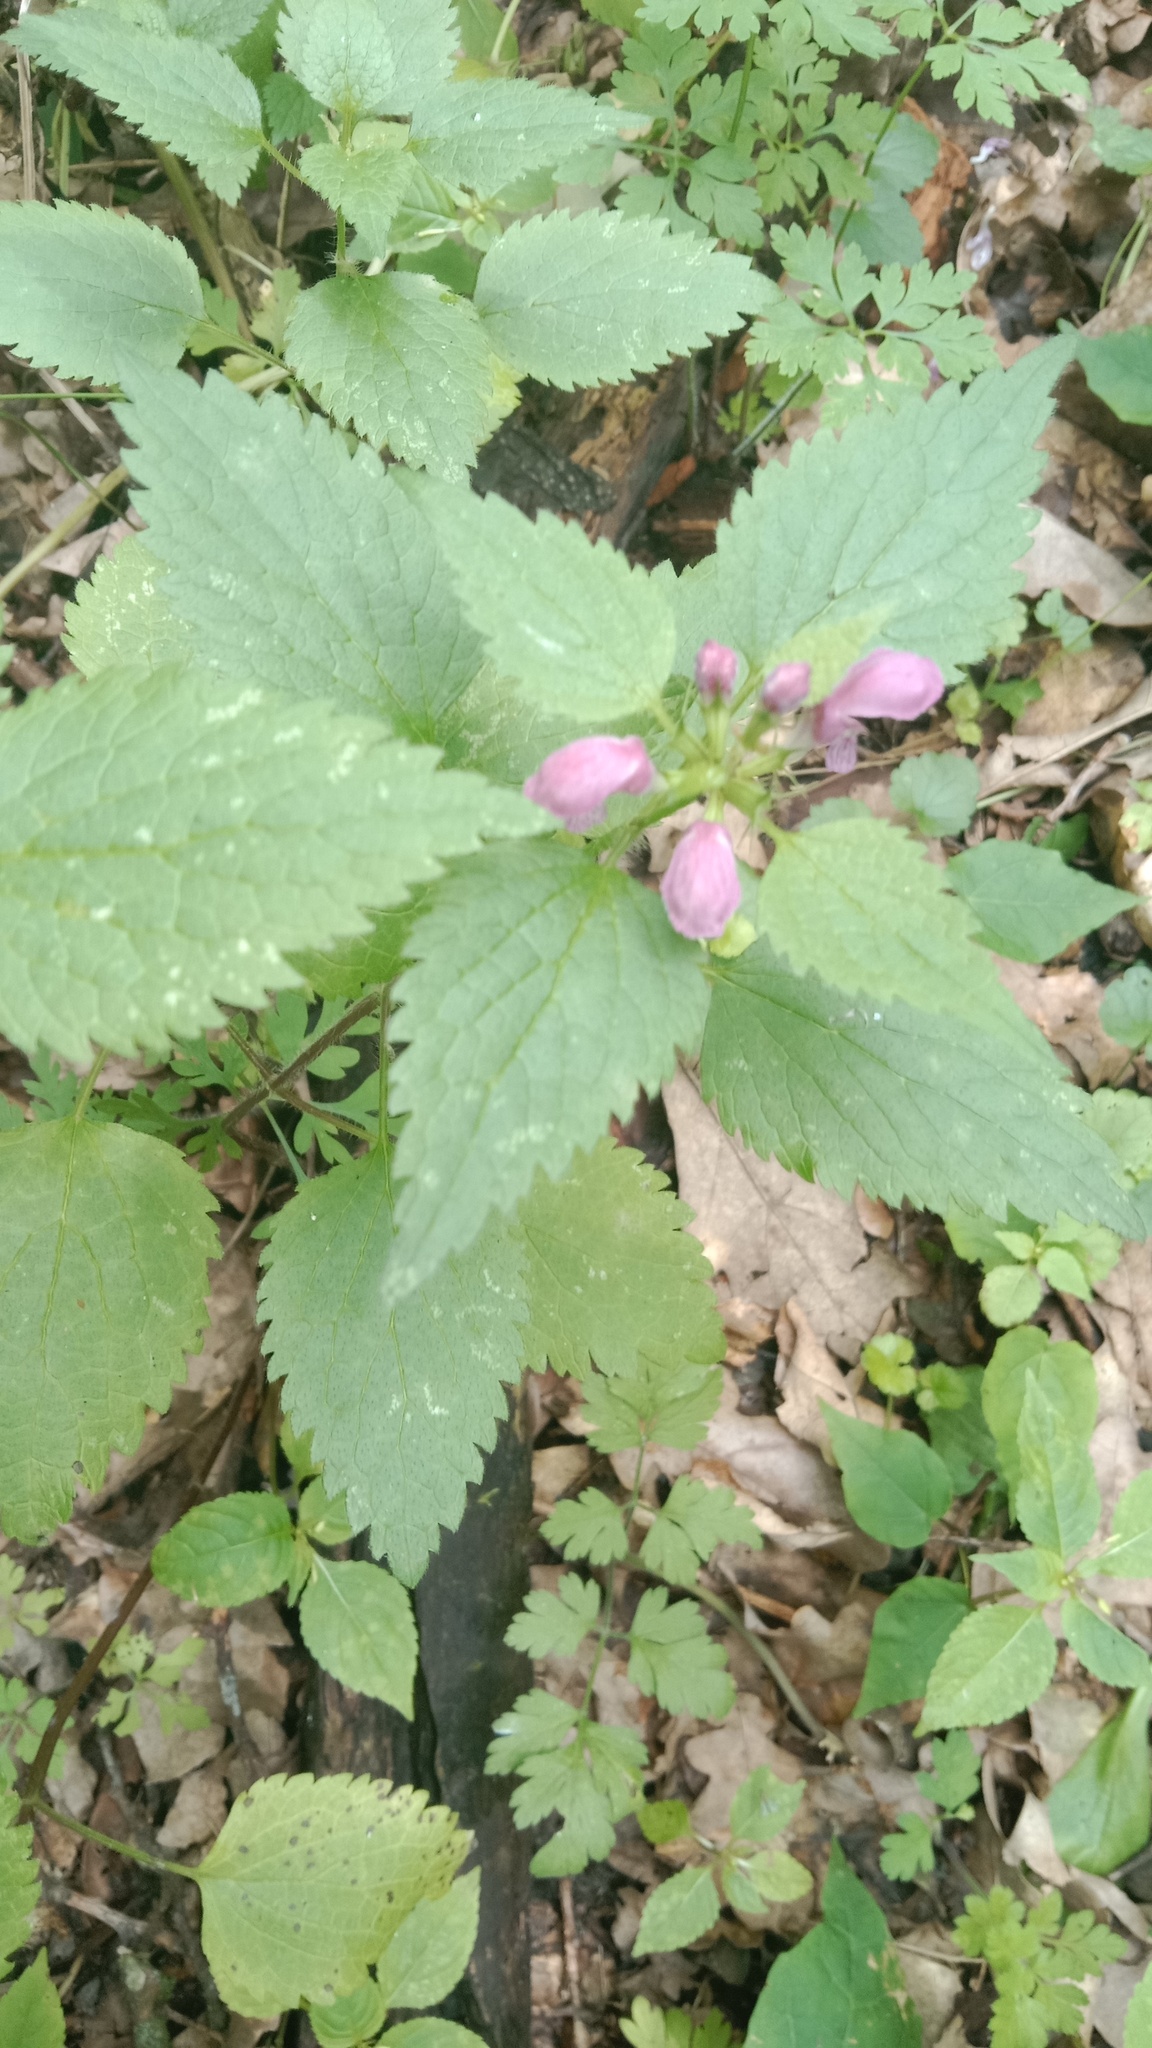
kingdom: Plantae
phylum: Tracheophyta
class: Magnoliopsida
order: Lamiales
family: Lamiaceae
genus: Lamium
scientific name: Lamium maculatum
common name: Spotted dead-nettle
